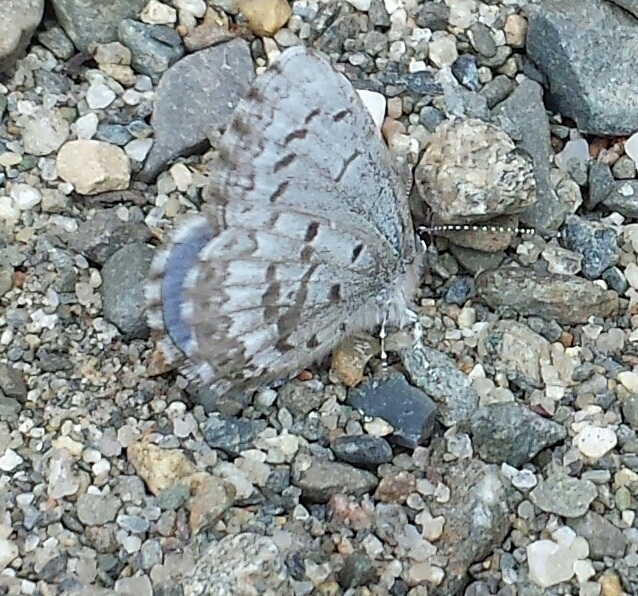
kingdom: Animalia
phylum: Arthropoda
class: Insecta
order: Lepidoptera
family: Lycaenidae
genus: Celastrina
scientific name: Celastrina lucia
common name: Lucia azure
